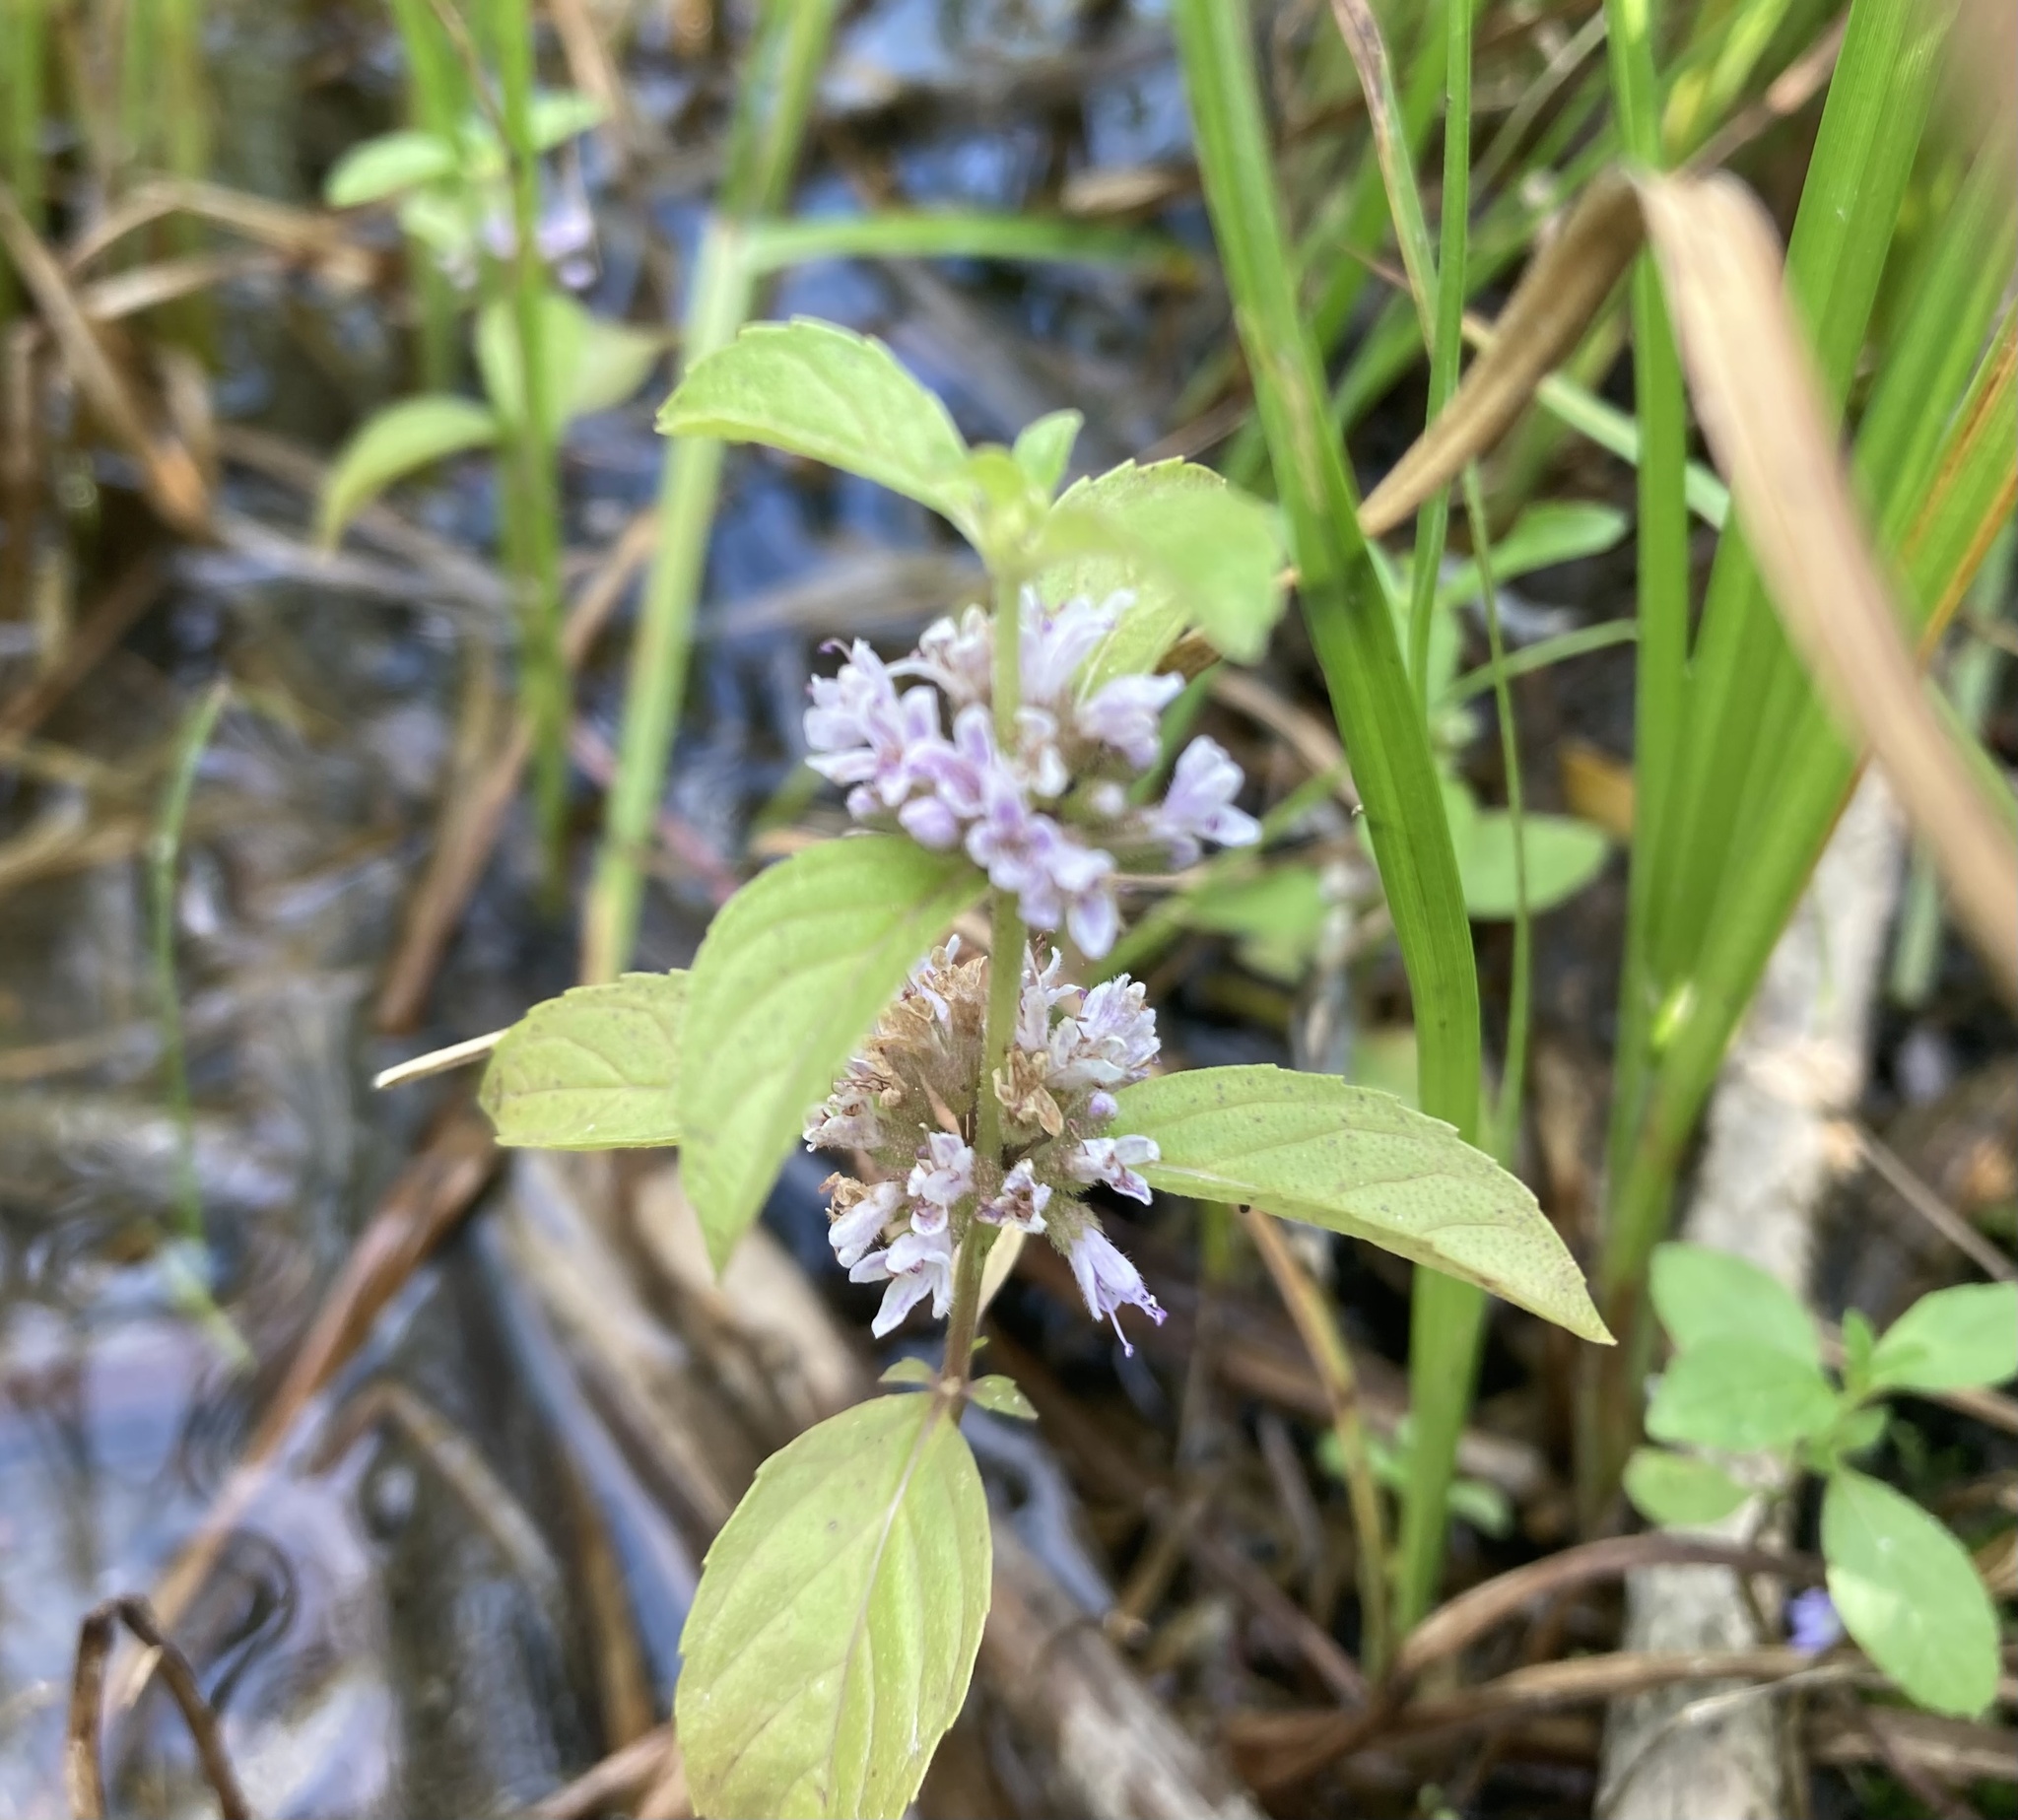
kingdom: Plantae
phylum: Tracheophyta
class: Magnoliopsida
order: Lamiales
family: Lamiaceae
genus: Mentha
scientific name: Mentha canadensis
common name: American corn mint
